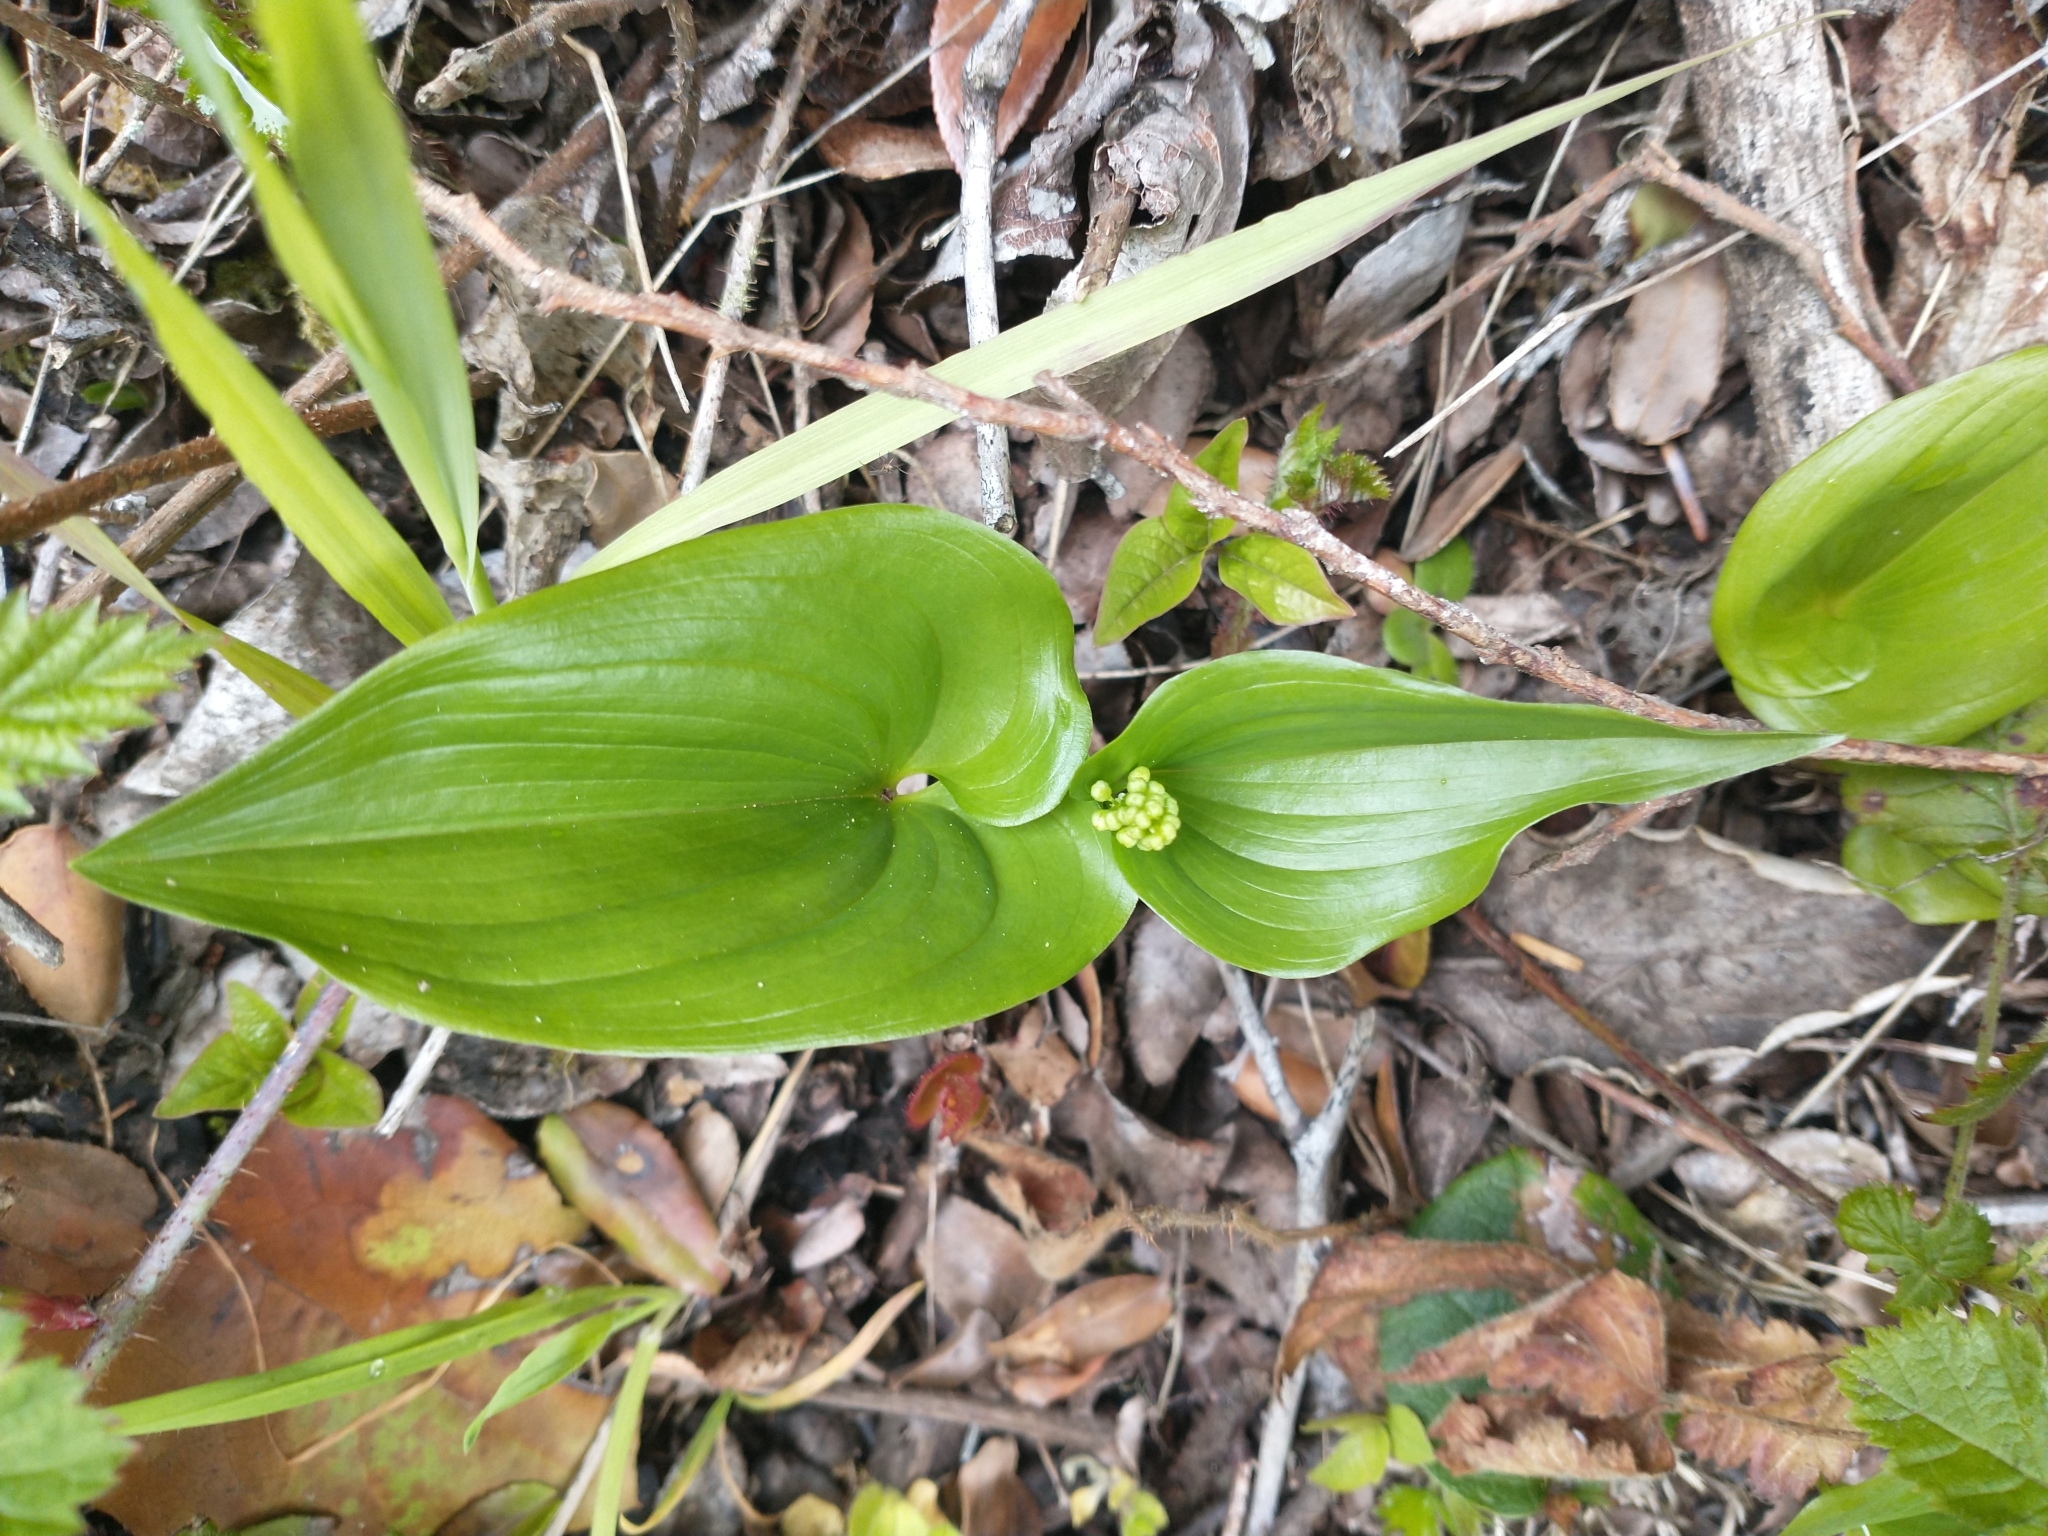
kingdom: Plantae
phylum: Tracheophyta
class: Liliopsida
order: Asparagales
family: Asparagaceae
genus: Maianthemum
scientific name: Maianthemum dilatatum
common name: False lily-of-the-valley
